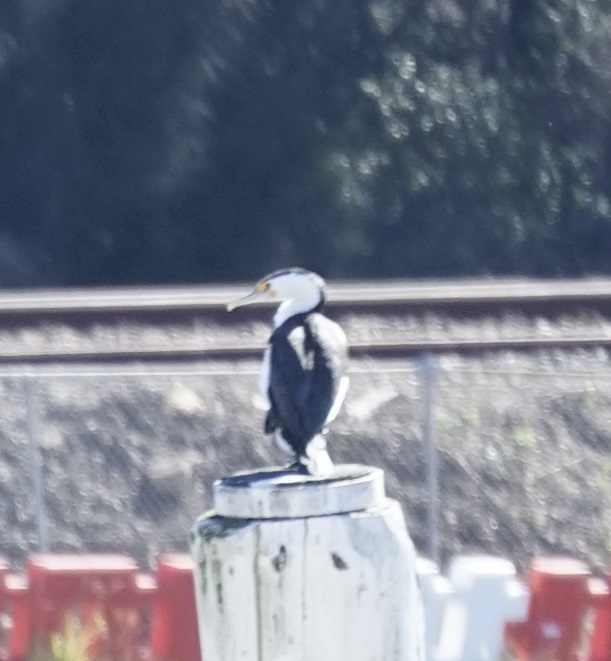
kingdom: Animalia
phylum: Chordata
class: Aves
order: Suliformes
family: Phalacrocoracidae
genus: Phalacrocorax
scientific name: Phalacrocorax varius
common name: Pied cormorant
